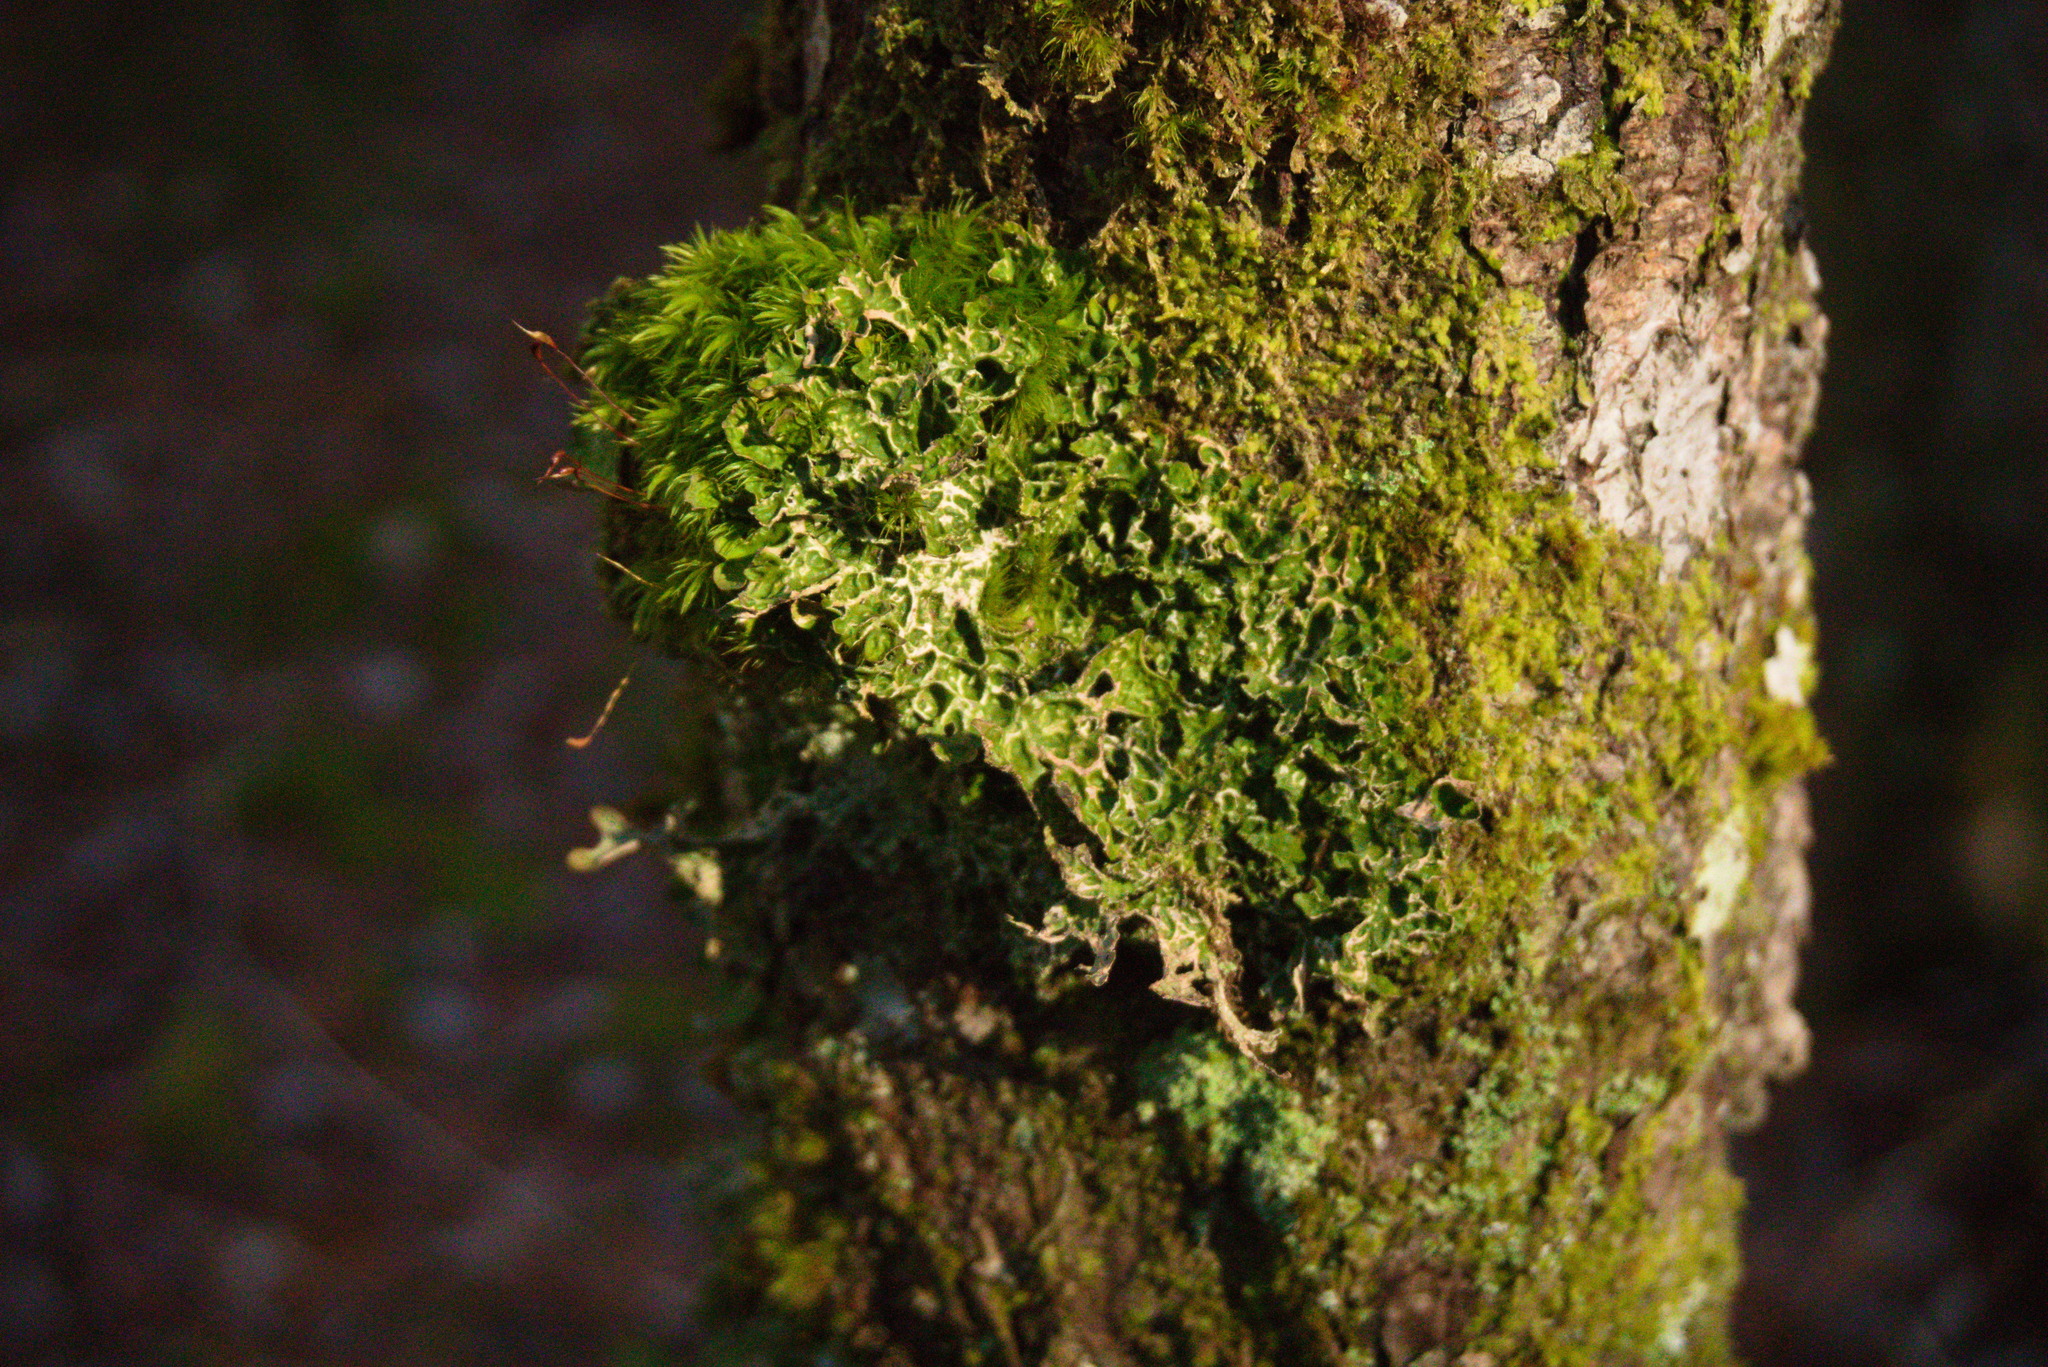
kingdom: Fungi
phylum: Ascomycota
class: Lecanoromycetes
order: Peltigerales
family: Lobariaceae
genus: Lobaria
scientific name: Lobaria pulmonaria
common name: Lungwort
